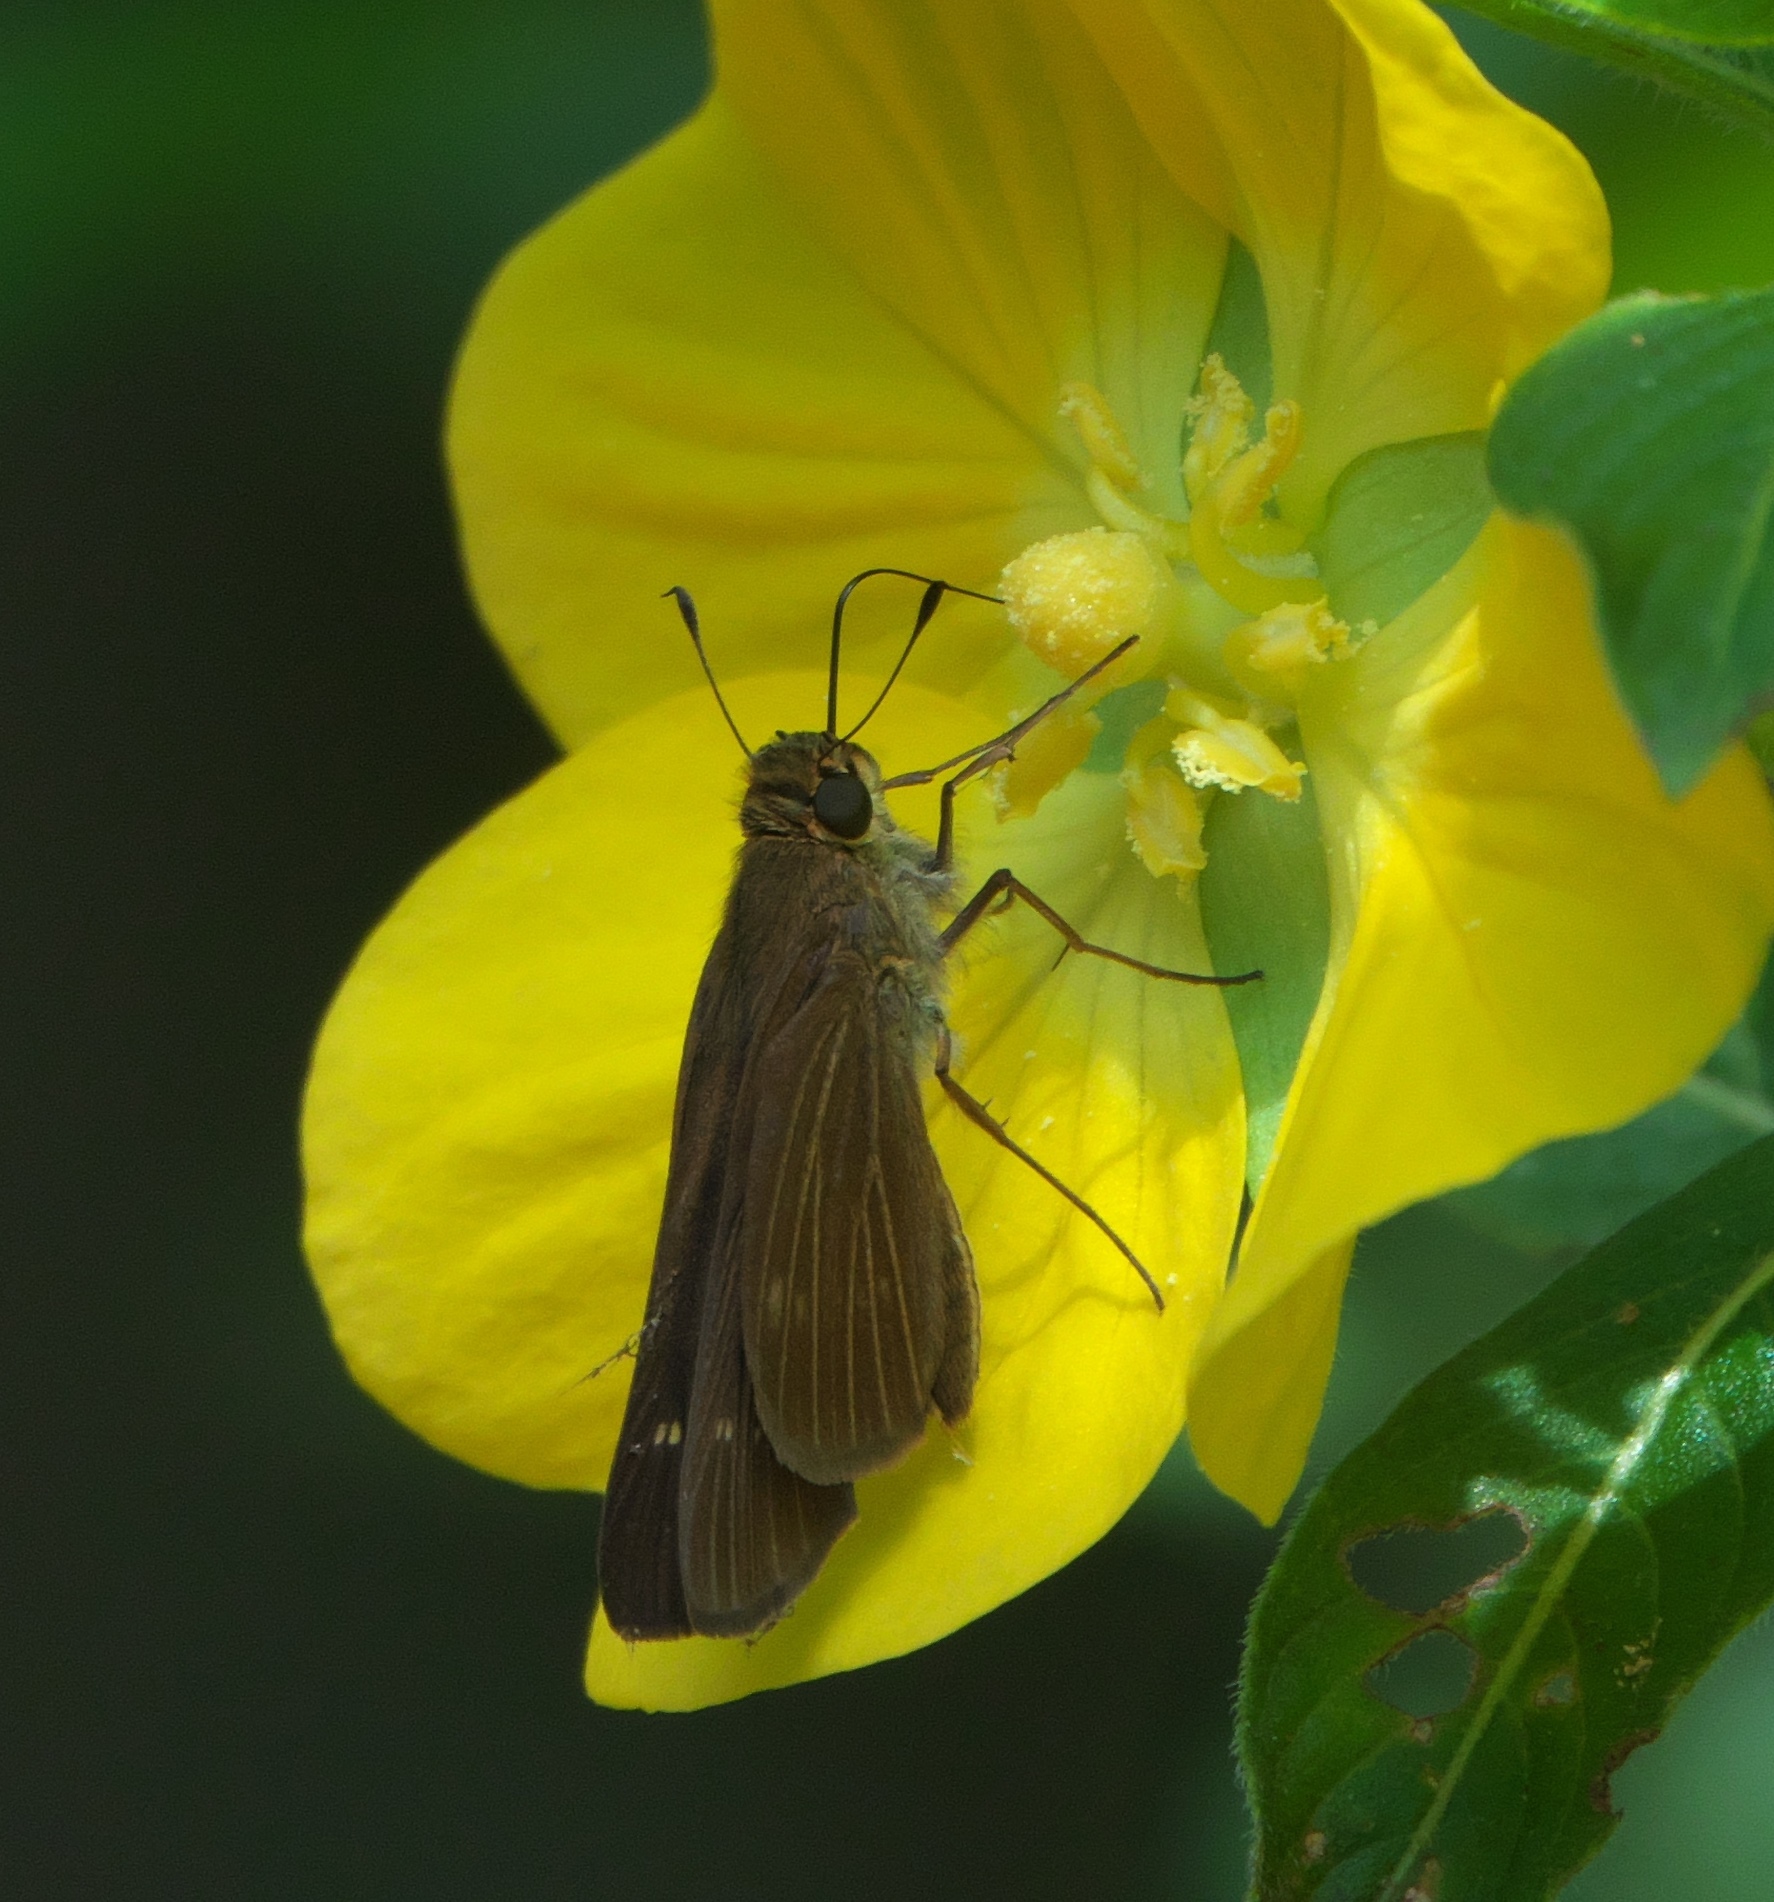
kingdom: Animalia
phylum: Arthropoda
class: Insecta
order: Lepidoptera
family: Hesperiidae
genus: Panoquina
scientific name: Panoquina ocola
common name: Ocola skipper
